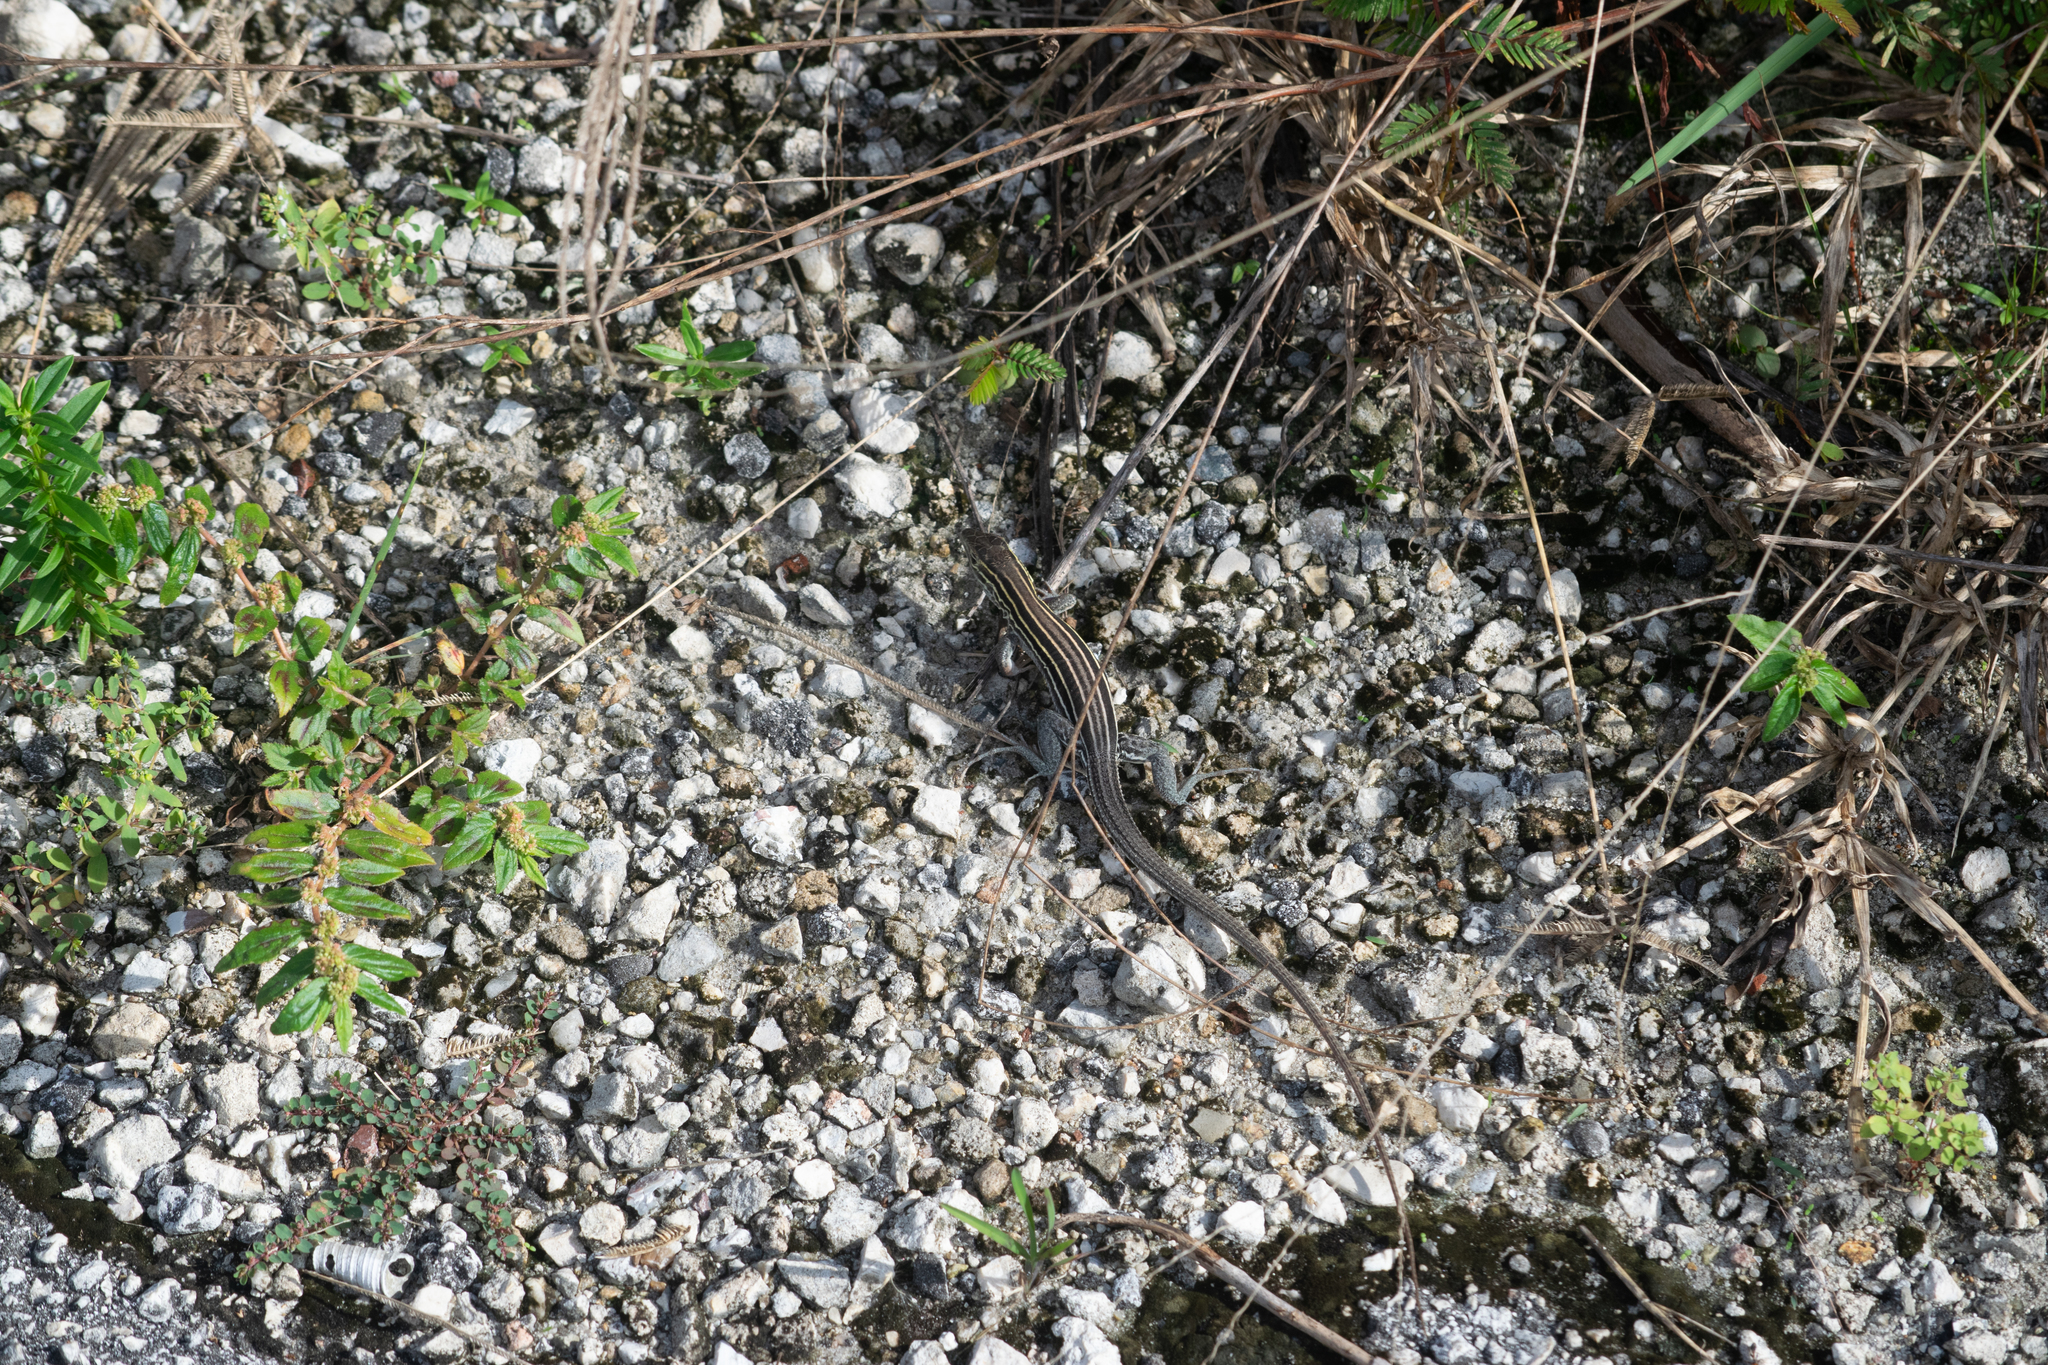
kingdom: Animalia
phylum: Chordata
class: Squamata
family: Teiidae
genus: Aspidoscelis
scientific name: Aspidoscelis sexlineatus
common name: Six-lined racerunner
